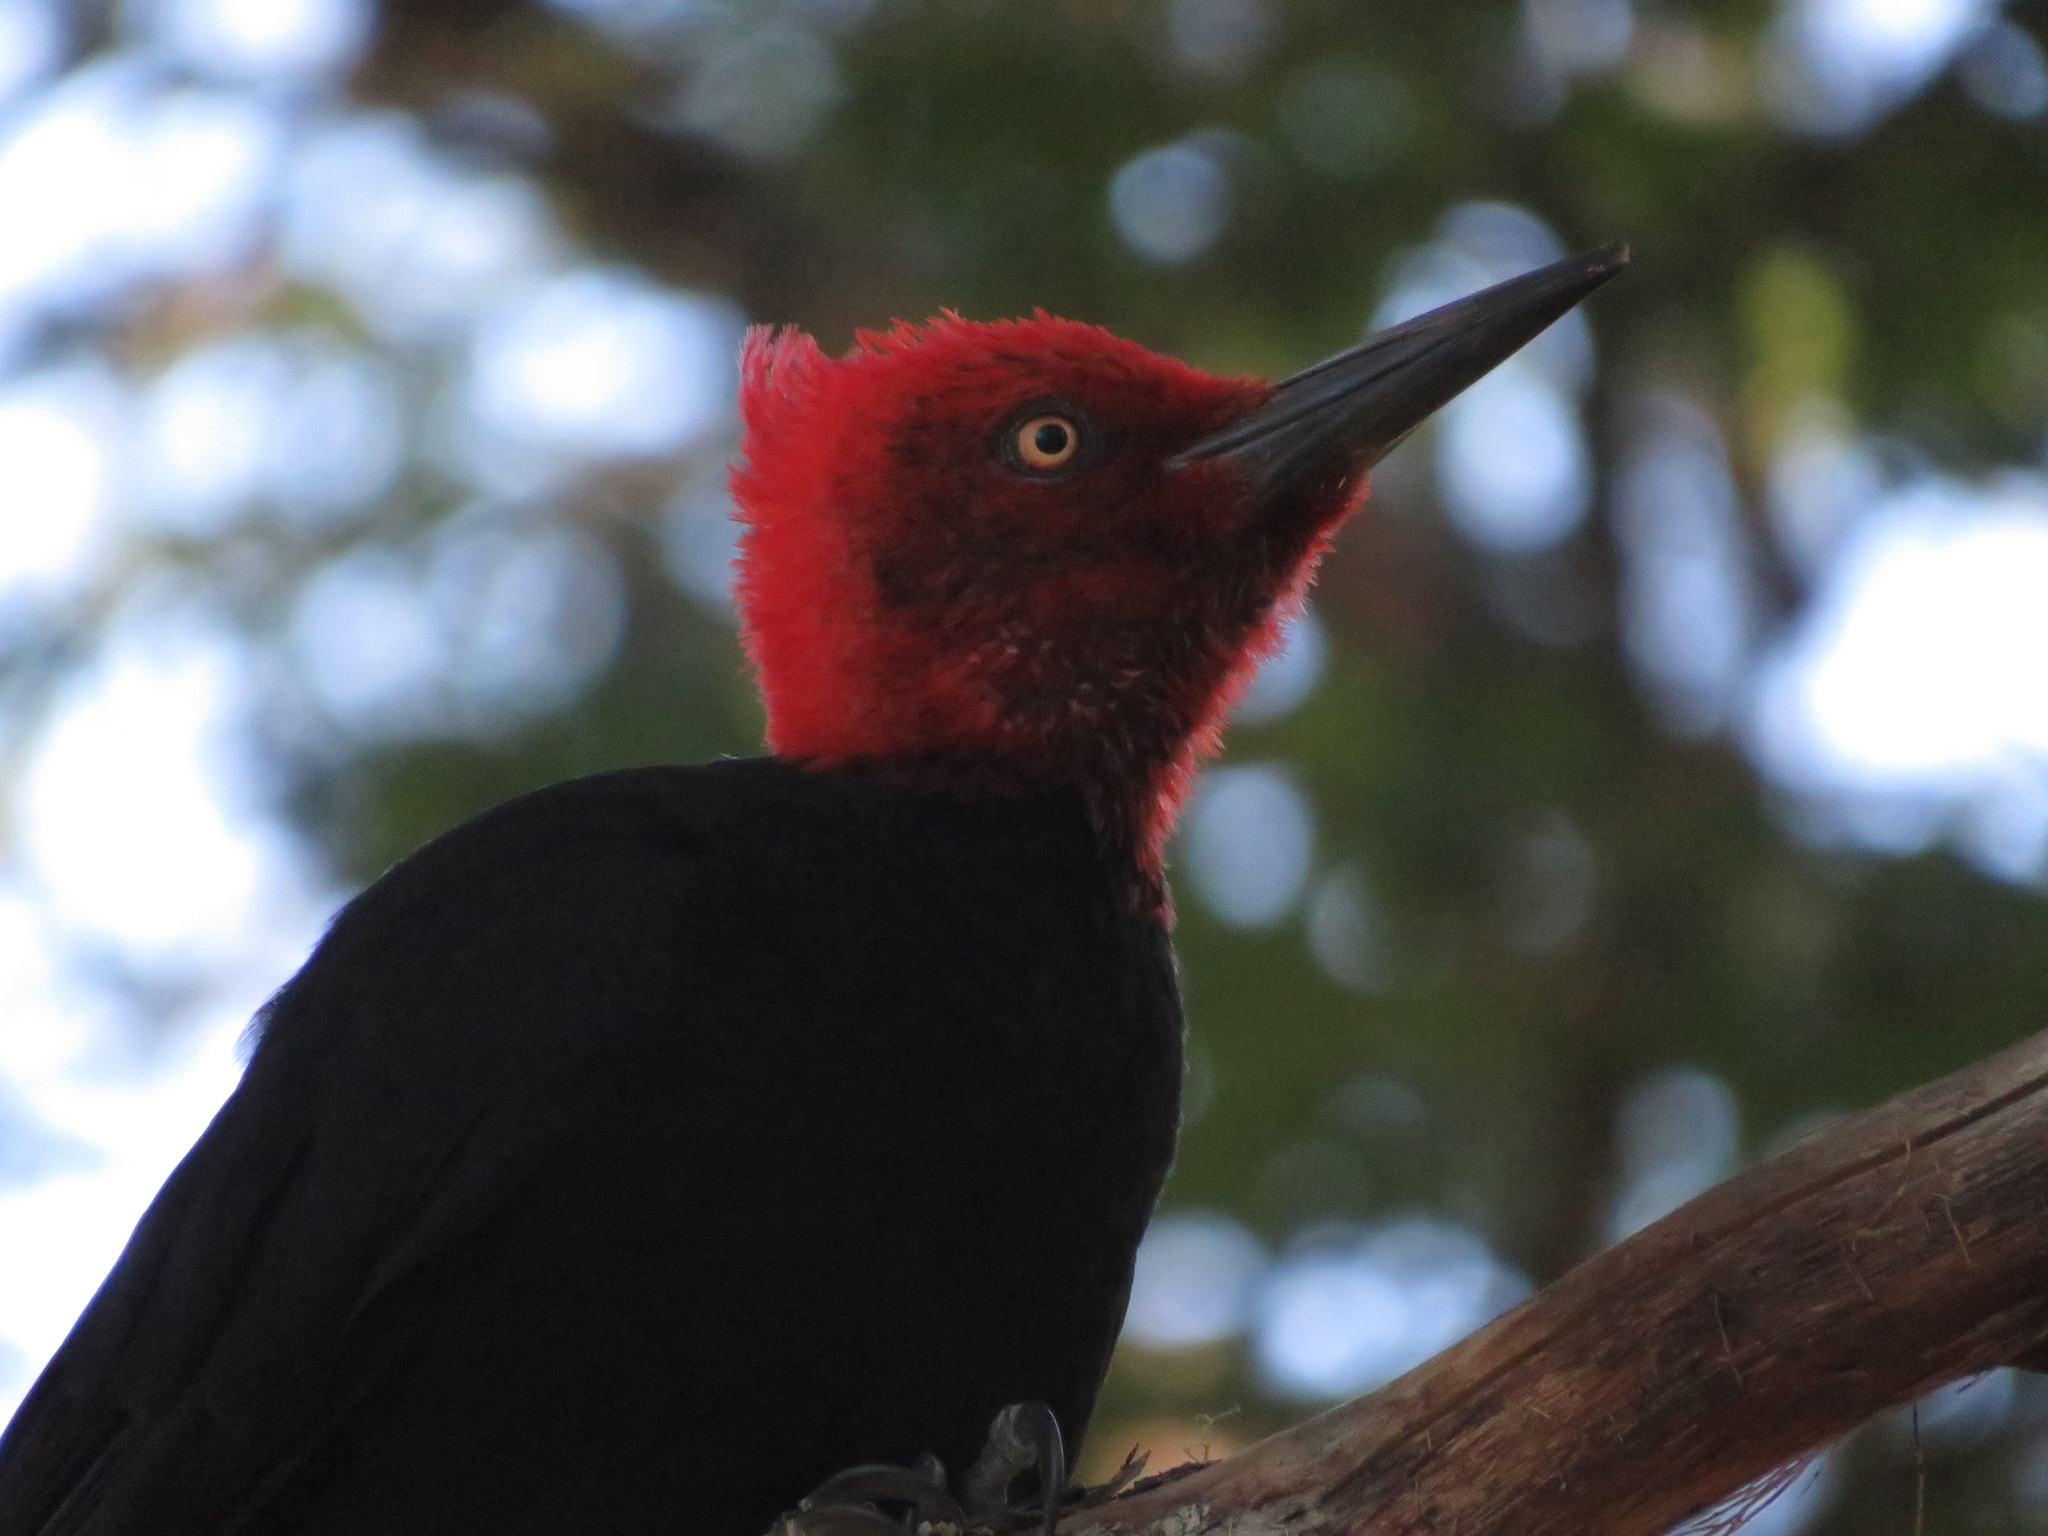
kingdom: Animalia
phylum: Chordata
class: Aves
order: Piciformes
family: Picidae
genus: Campephilus
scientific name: Campephilus magellanicus
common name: Magellanic woodpecker
